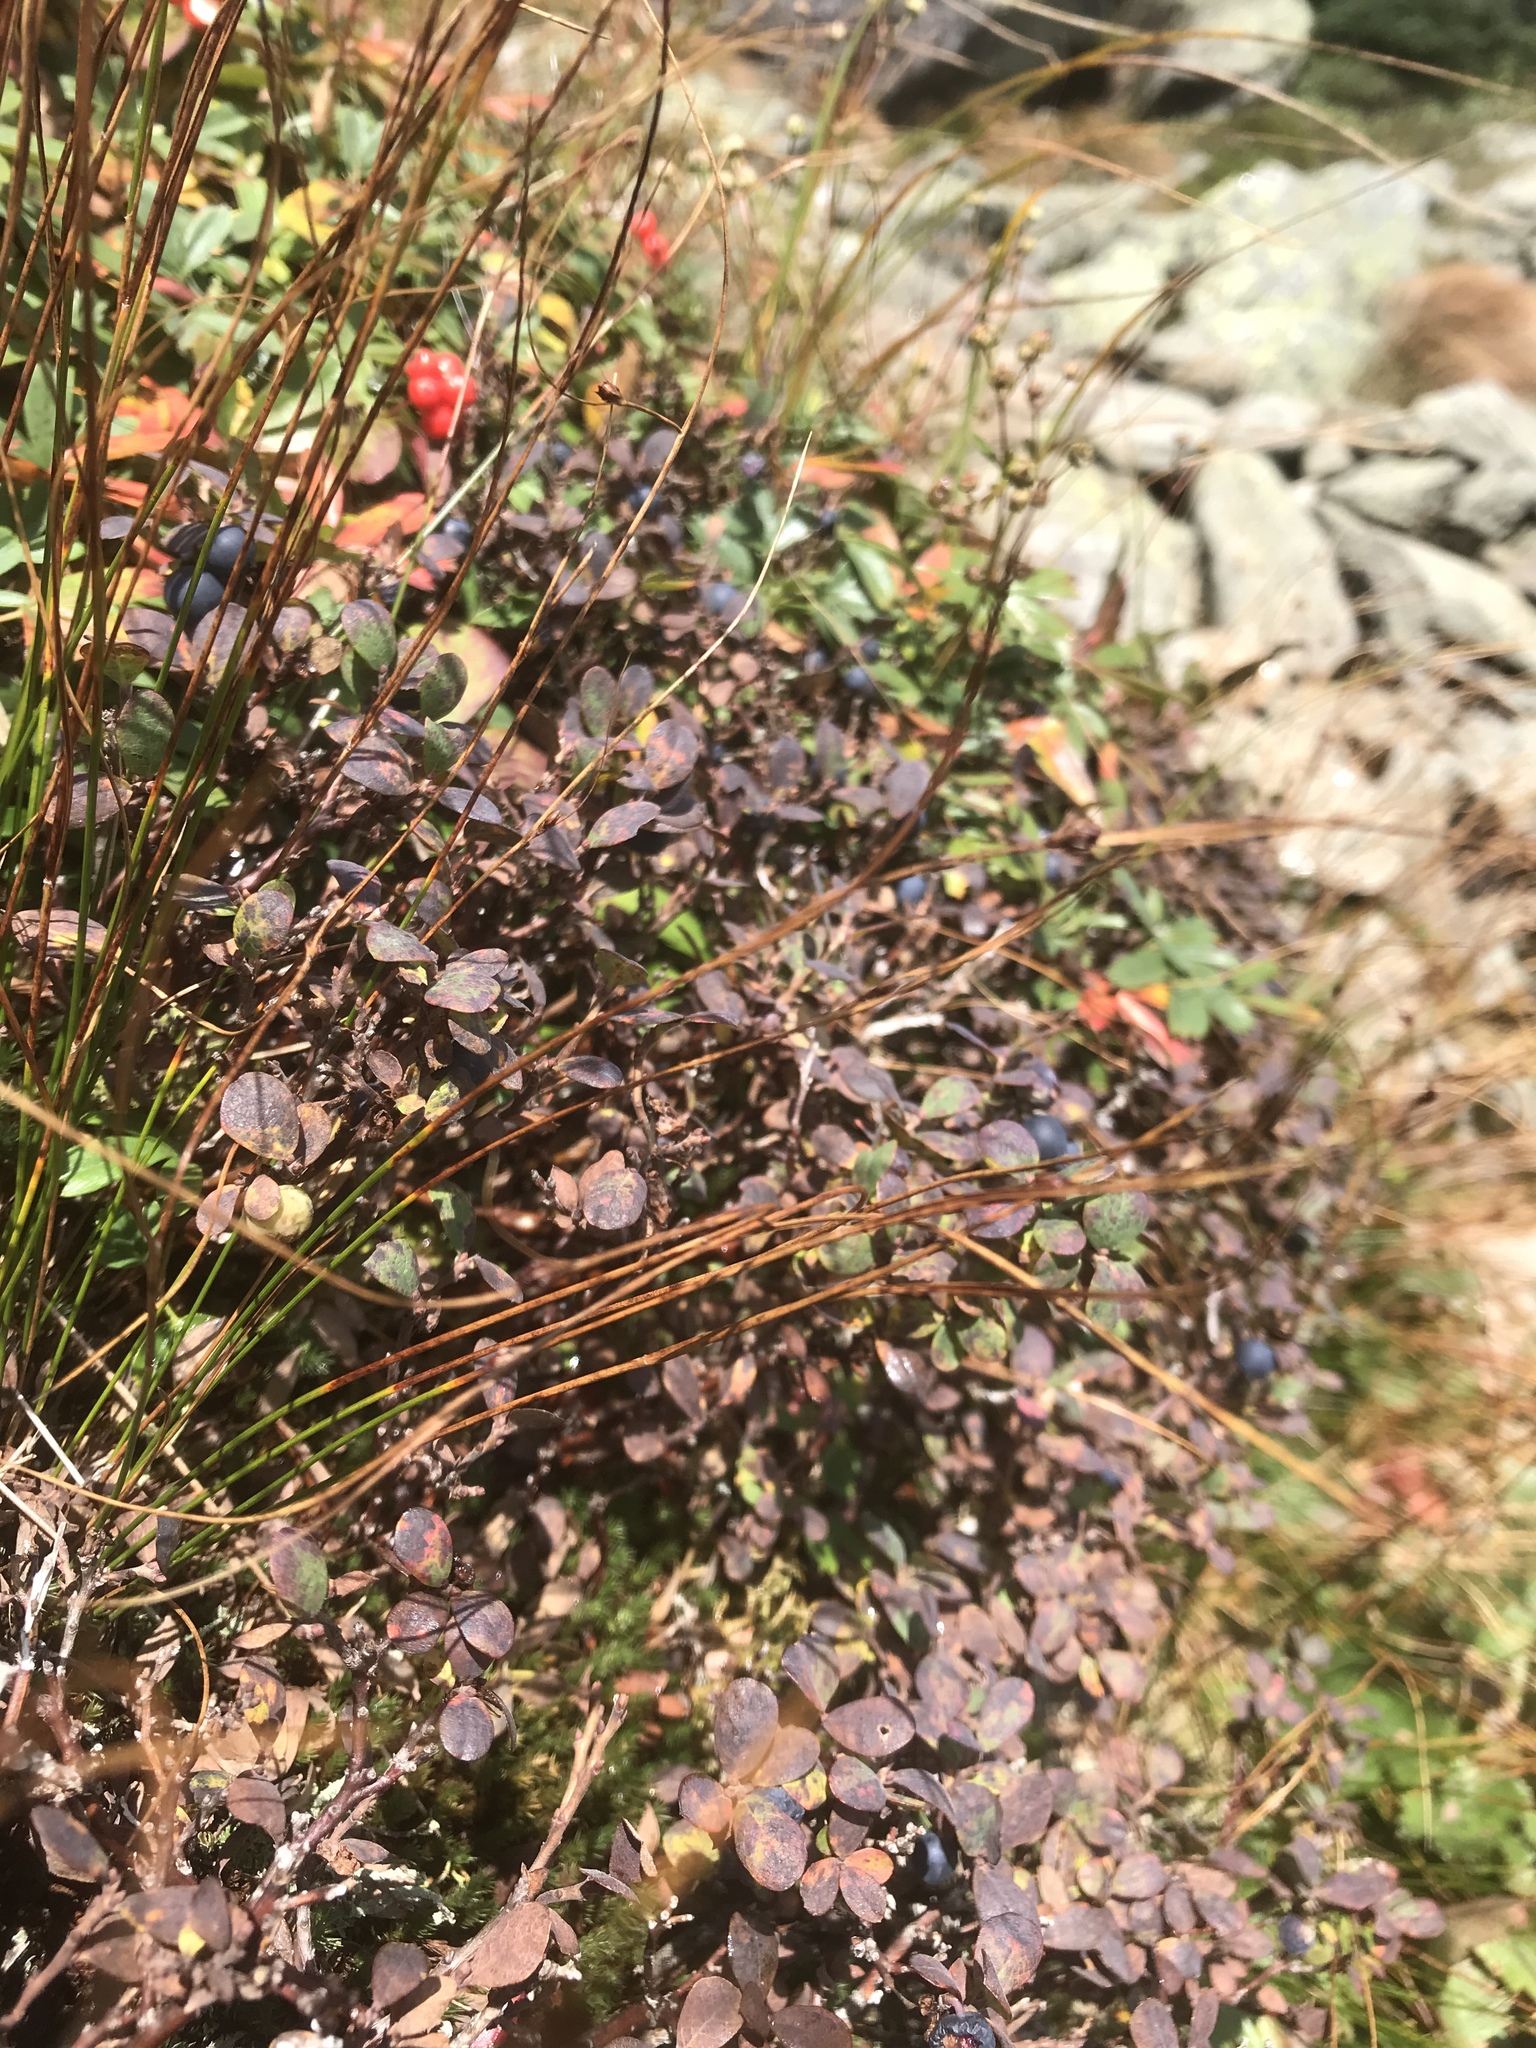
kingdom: Plantae
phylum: Tracheophyta
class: Magnoliopsida
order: Ericales
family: Ericaceae
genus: Vaccinium
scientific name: Vaccinium uliginosum
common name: Bog bilberry
